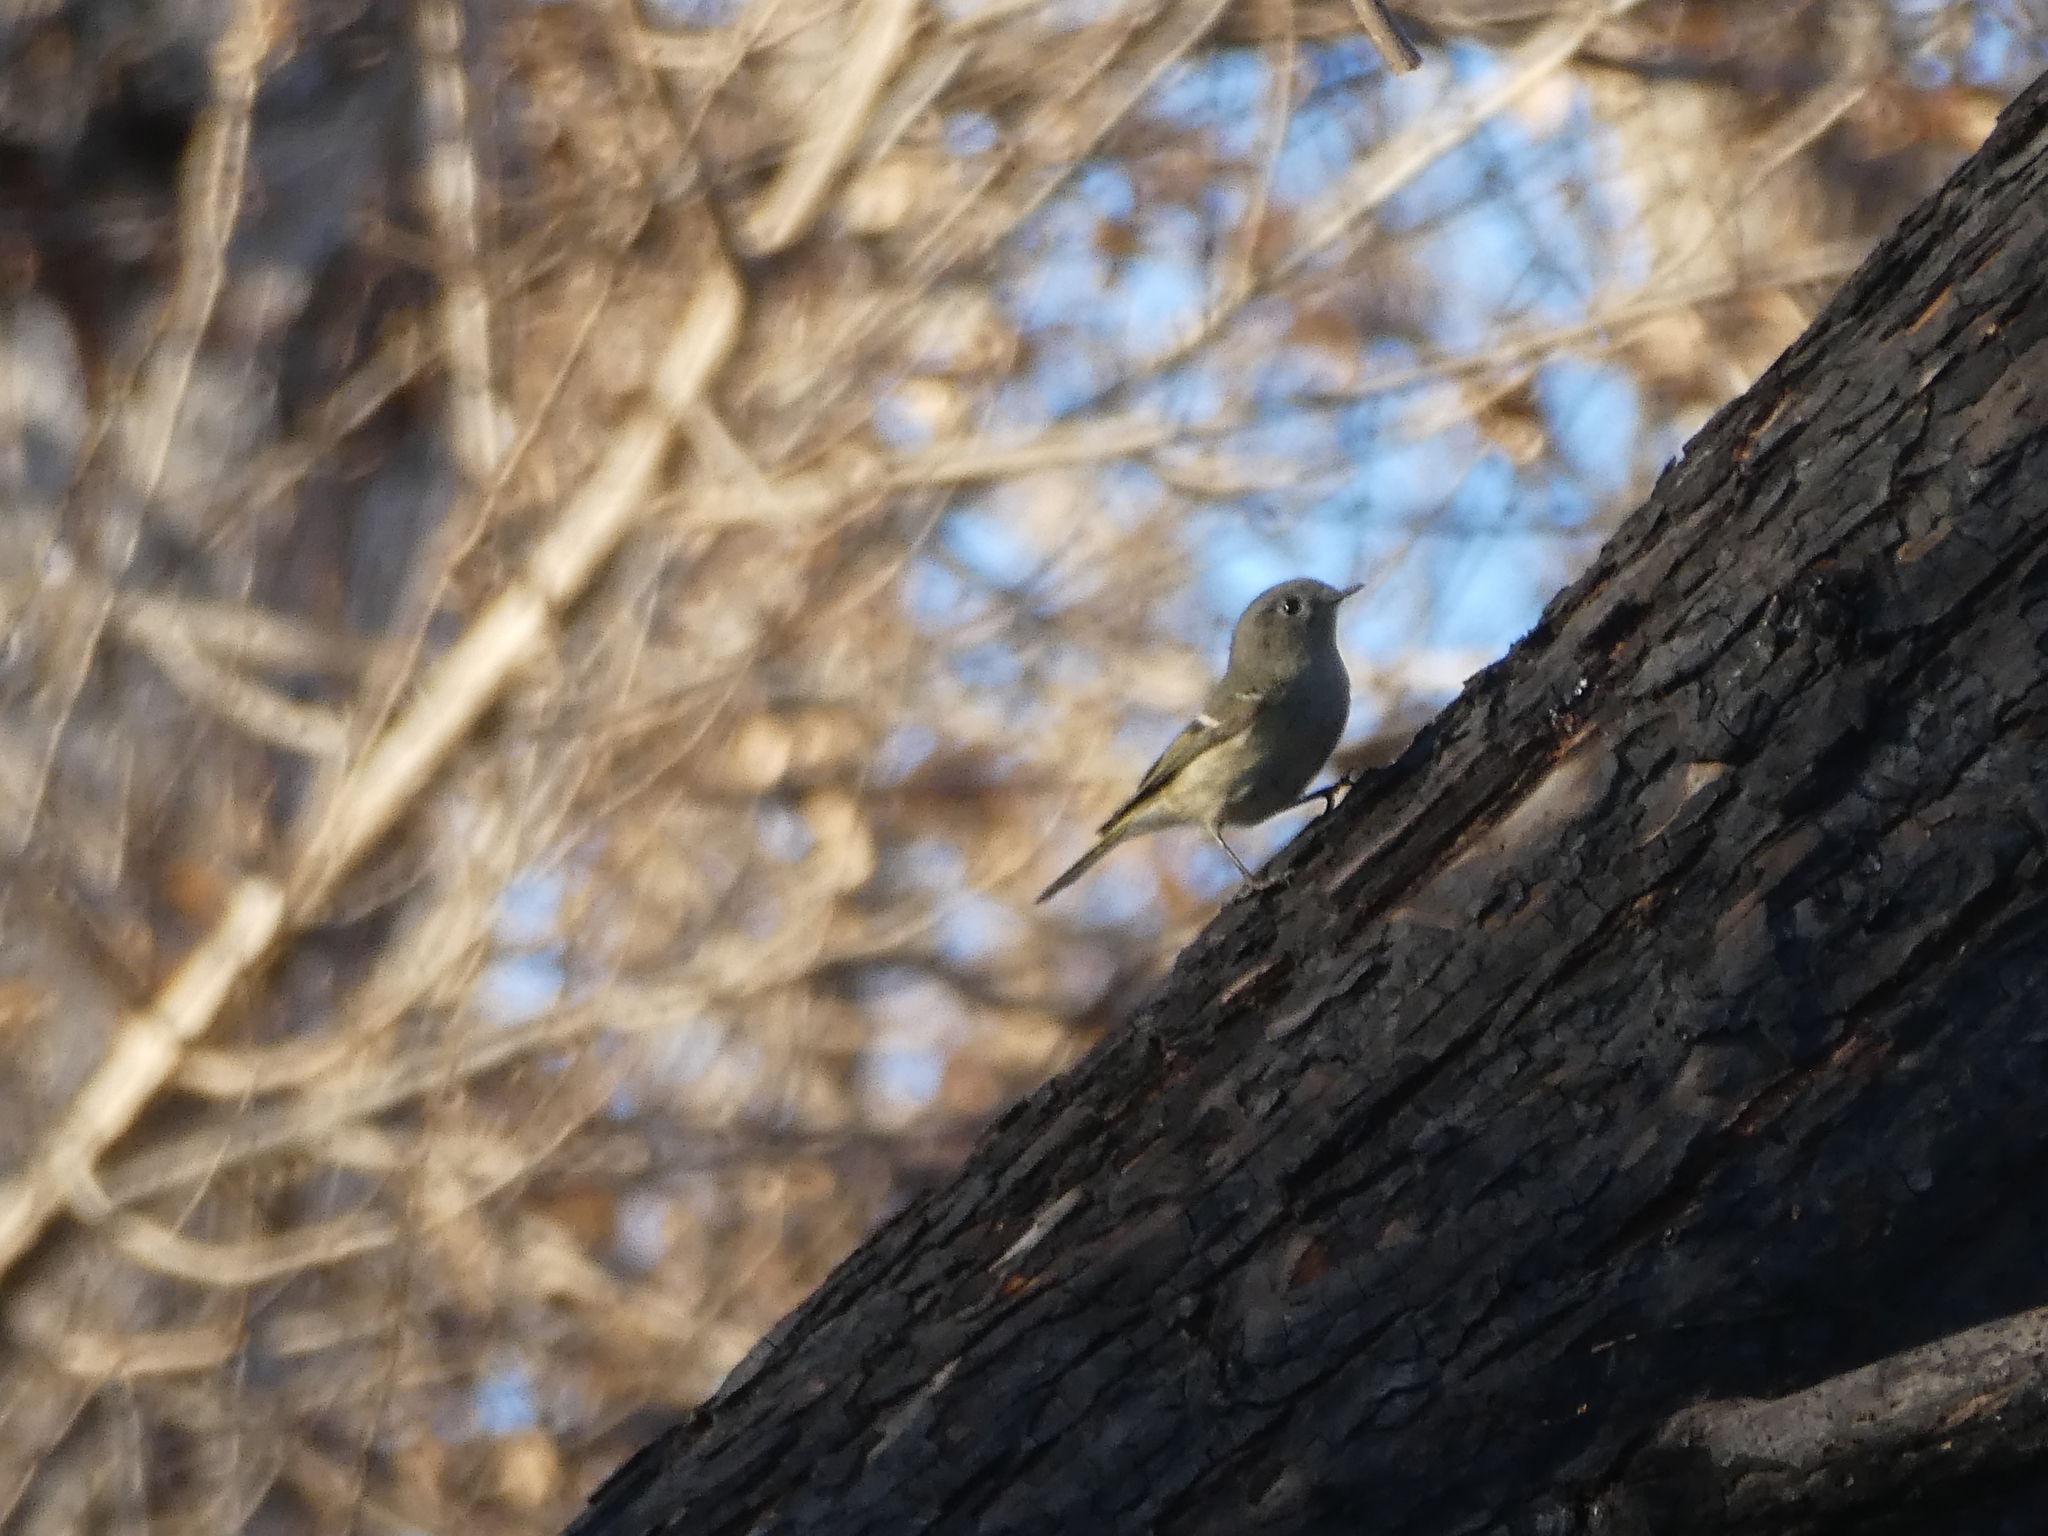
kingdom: Animalia
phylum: Chordata
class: Aves
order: Passeriformes
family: Regulidae
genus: Regulus
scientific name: Regulus calendula
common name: Ruby-crowned kinglet
